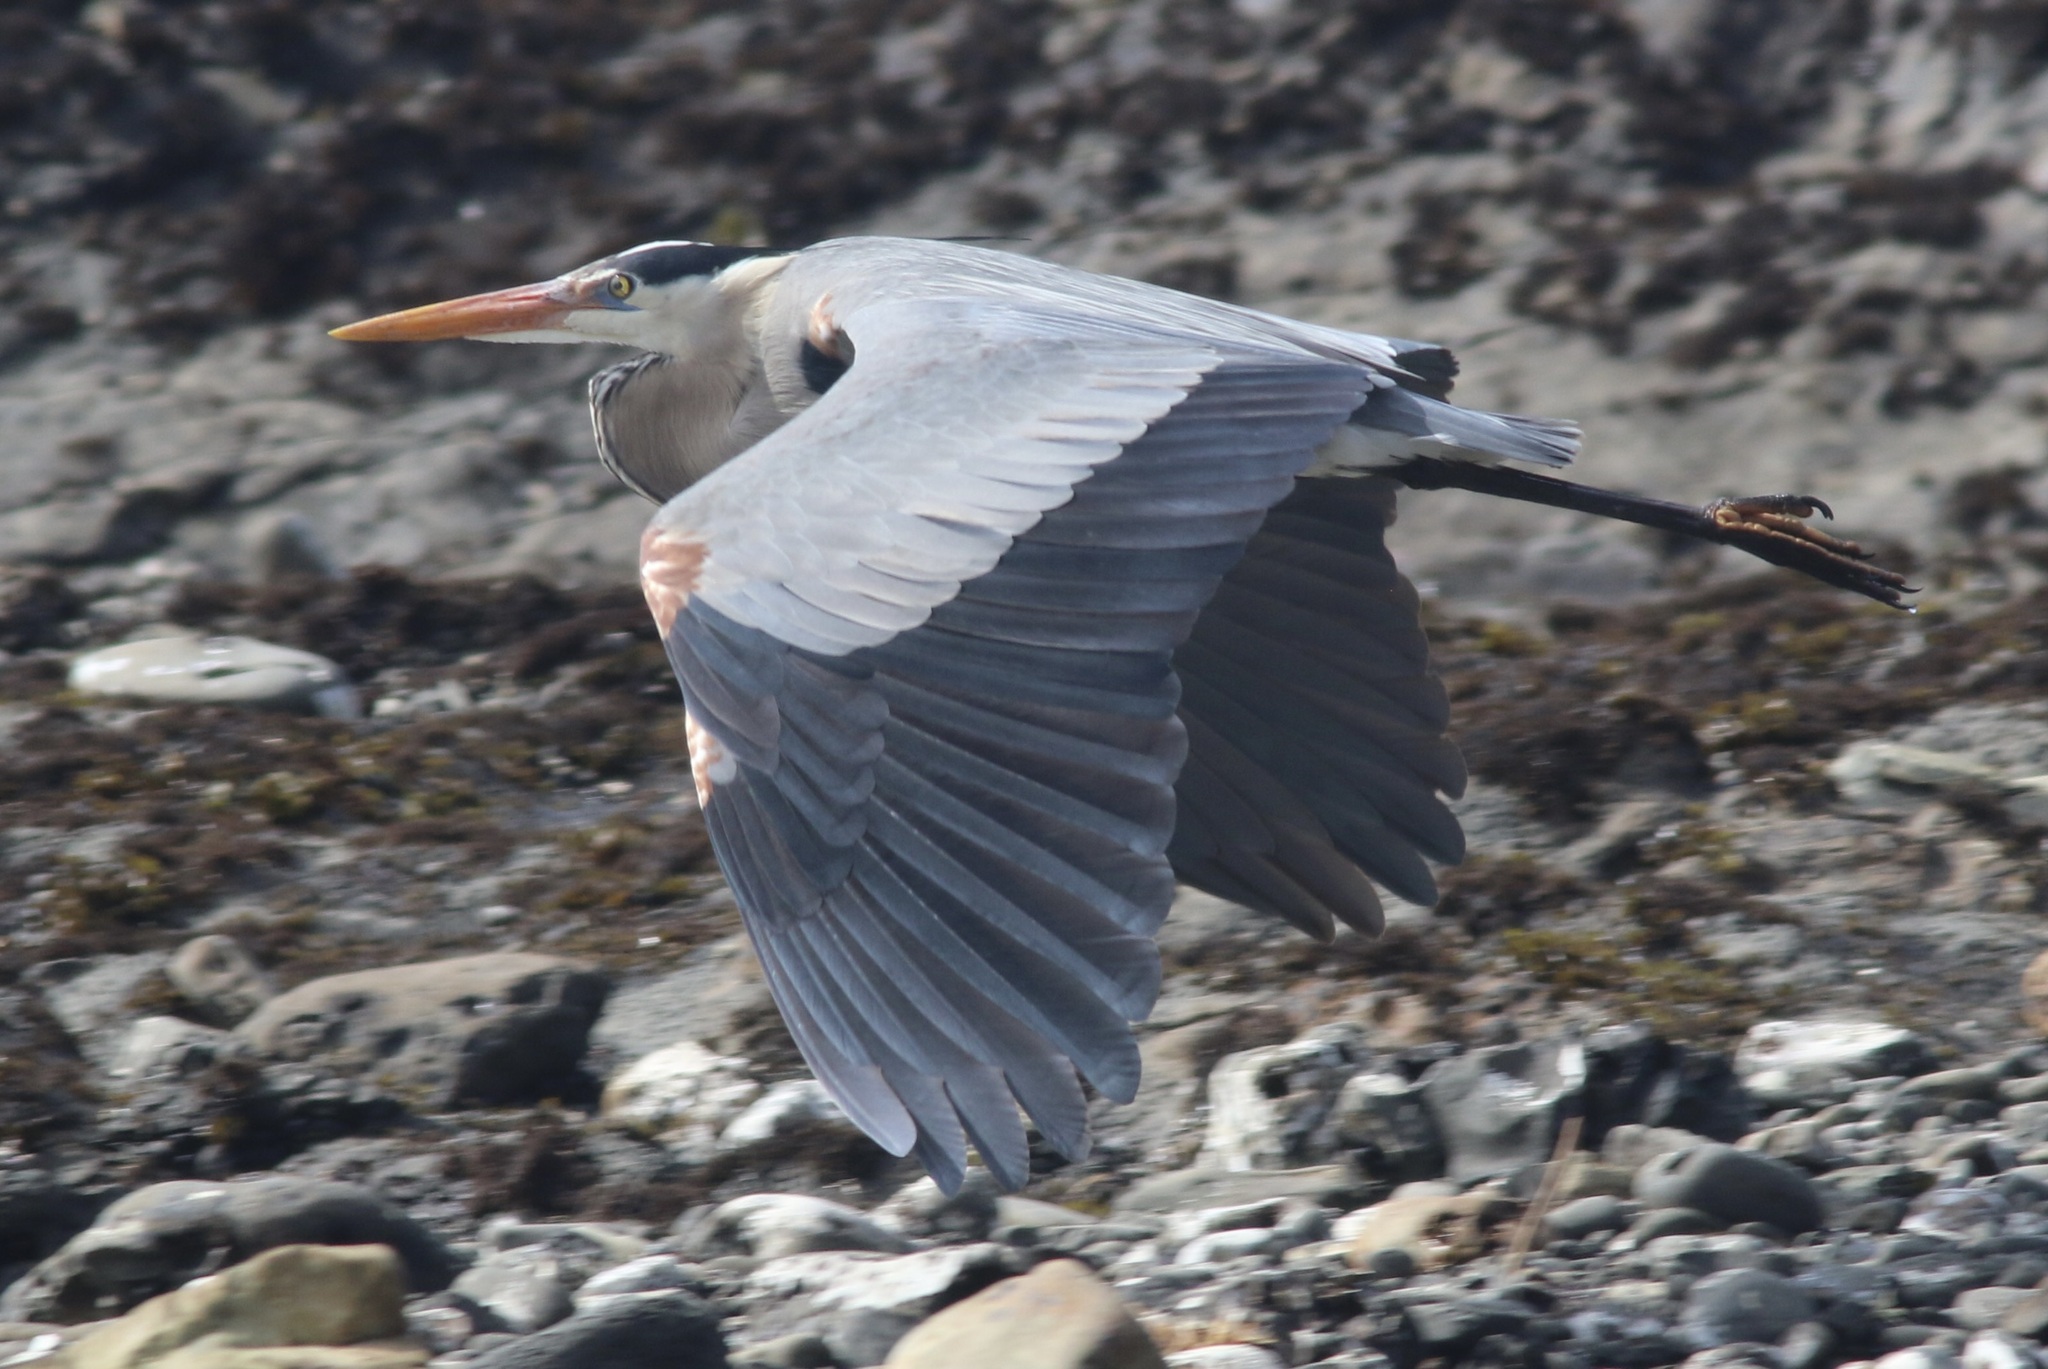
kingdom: Animalia
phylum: Chordata
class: Aves
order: Pelecaniformes
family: Ardeidae
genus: Ardea
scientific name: Ardea herodias
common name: Great blue heron
